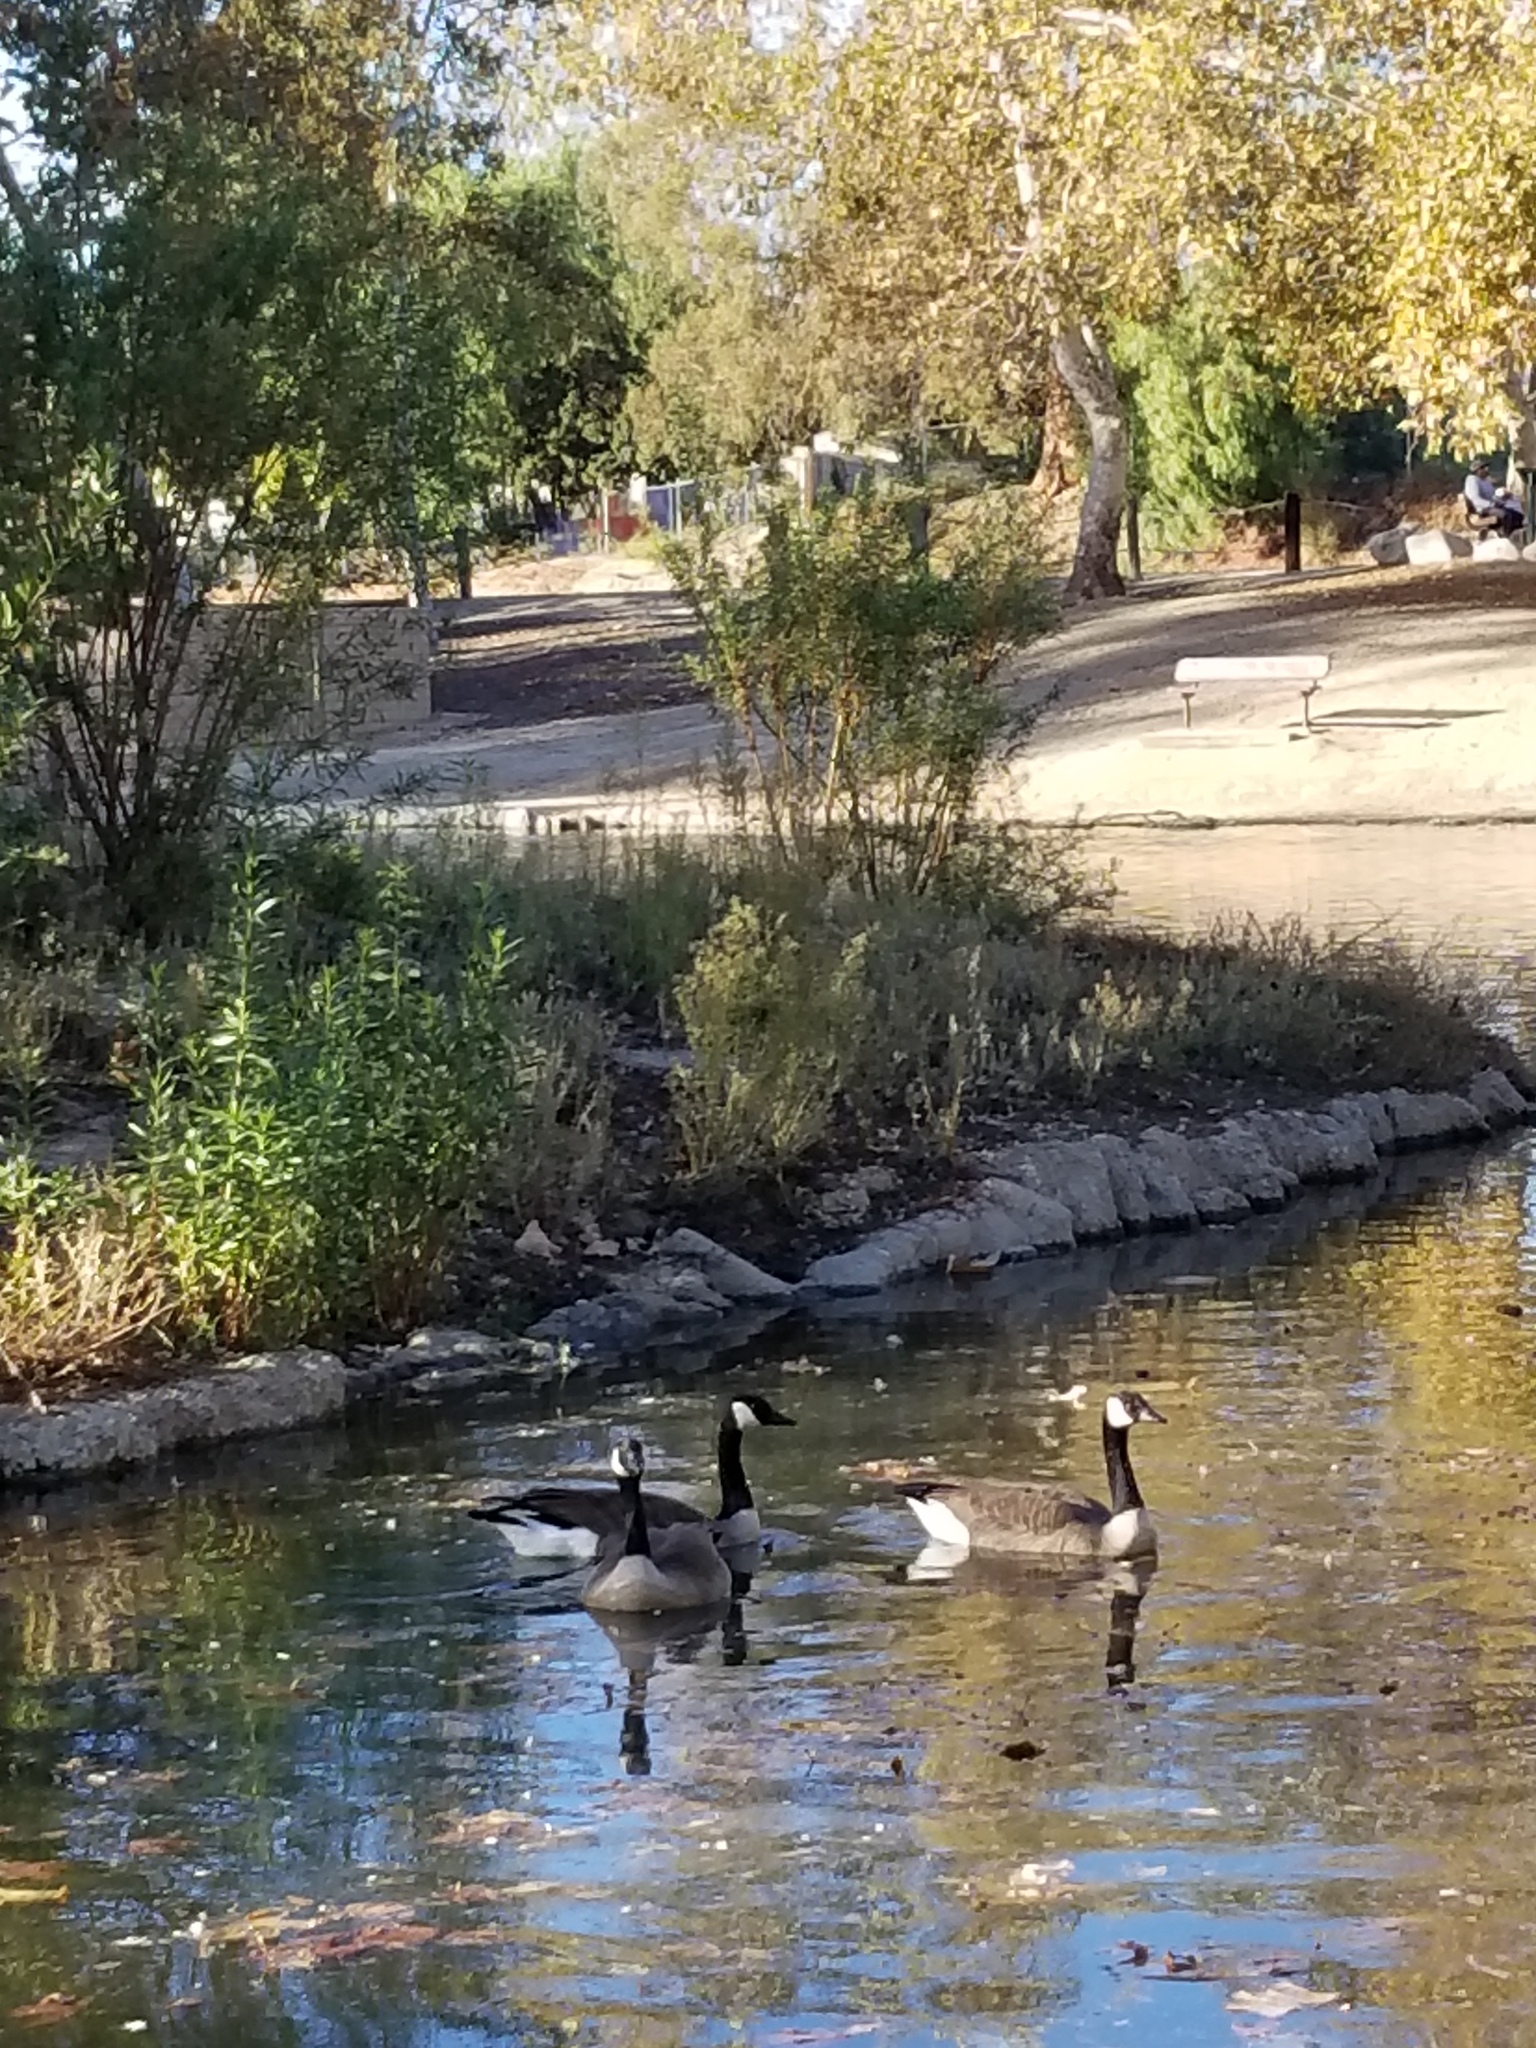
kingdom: Animalia
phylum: Chordata
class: Aves
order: Anseriformes
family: Anatidae
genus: Branta
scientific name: Branta canadensis
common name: Canada goose
